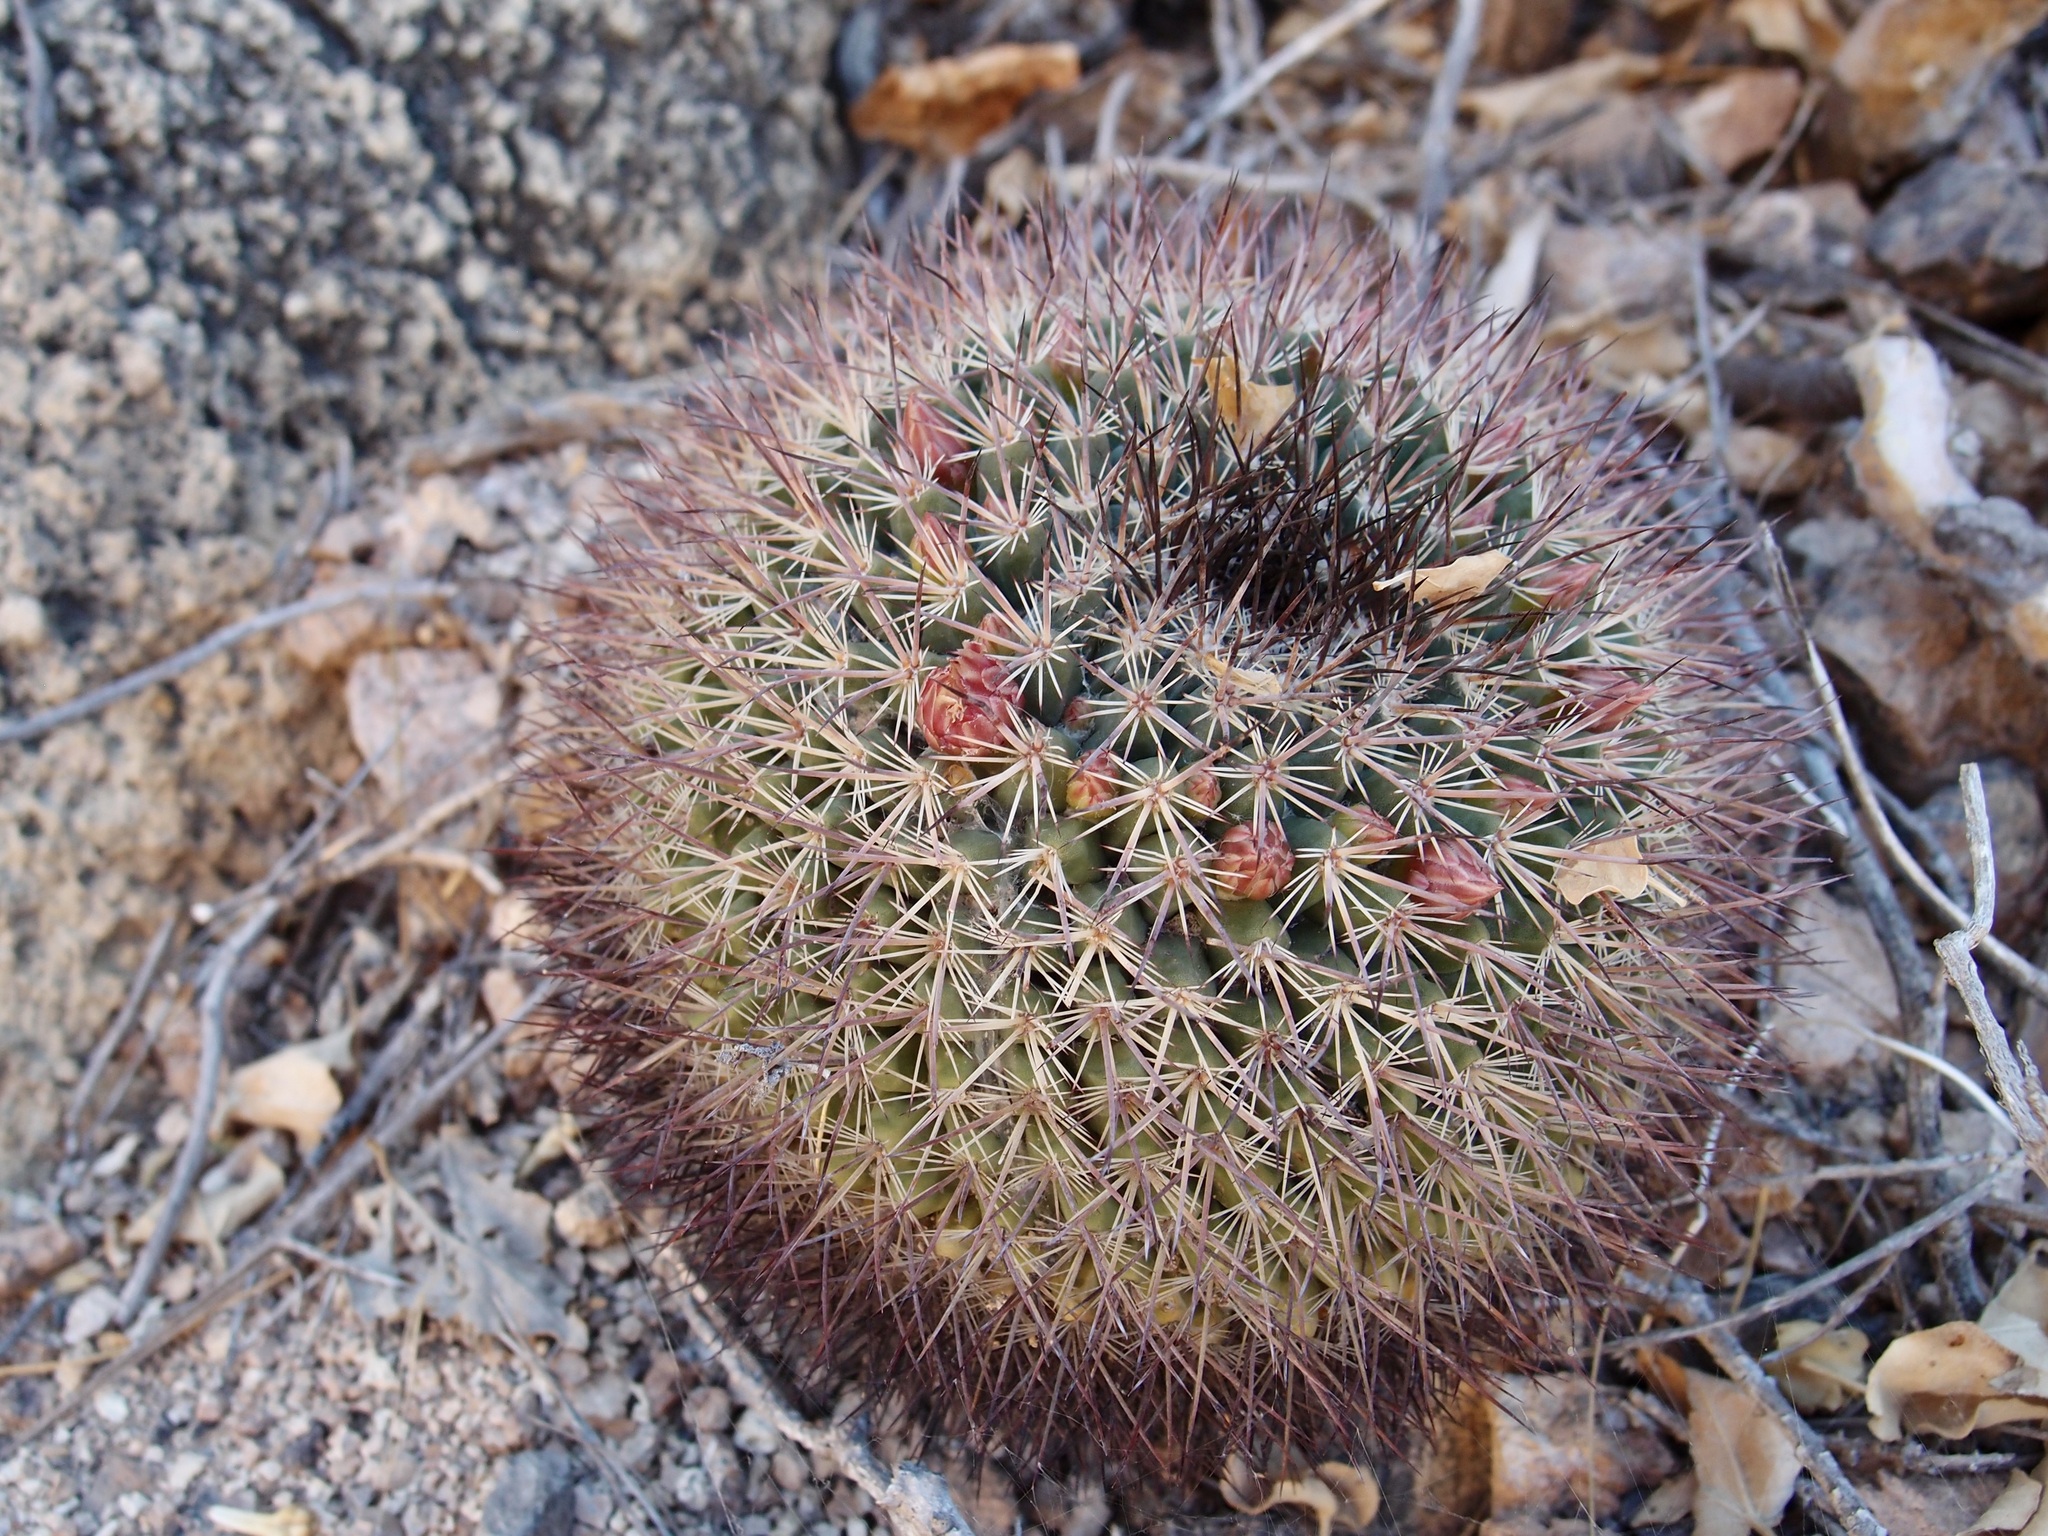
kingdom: Plantae
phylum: Tracheophyta
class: Magnoliopsida
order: Caryophyllales
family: Cactaceae
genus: Mammillaria
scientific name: Mammillaria johnstonii
